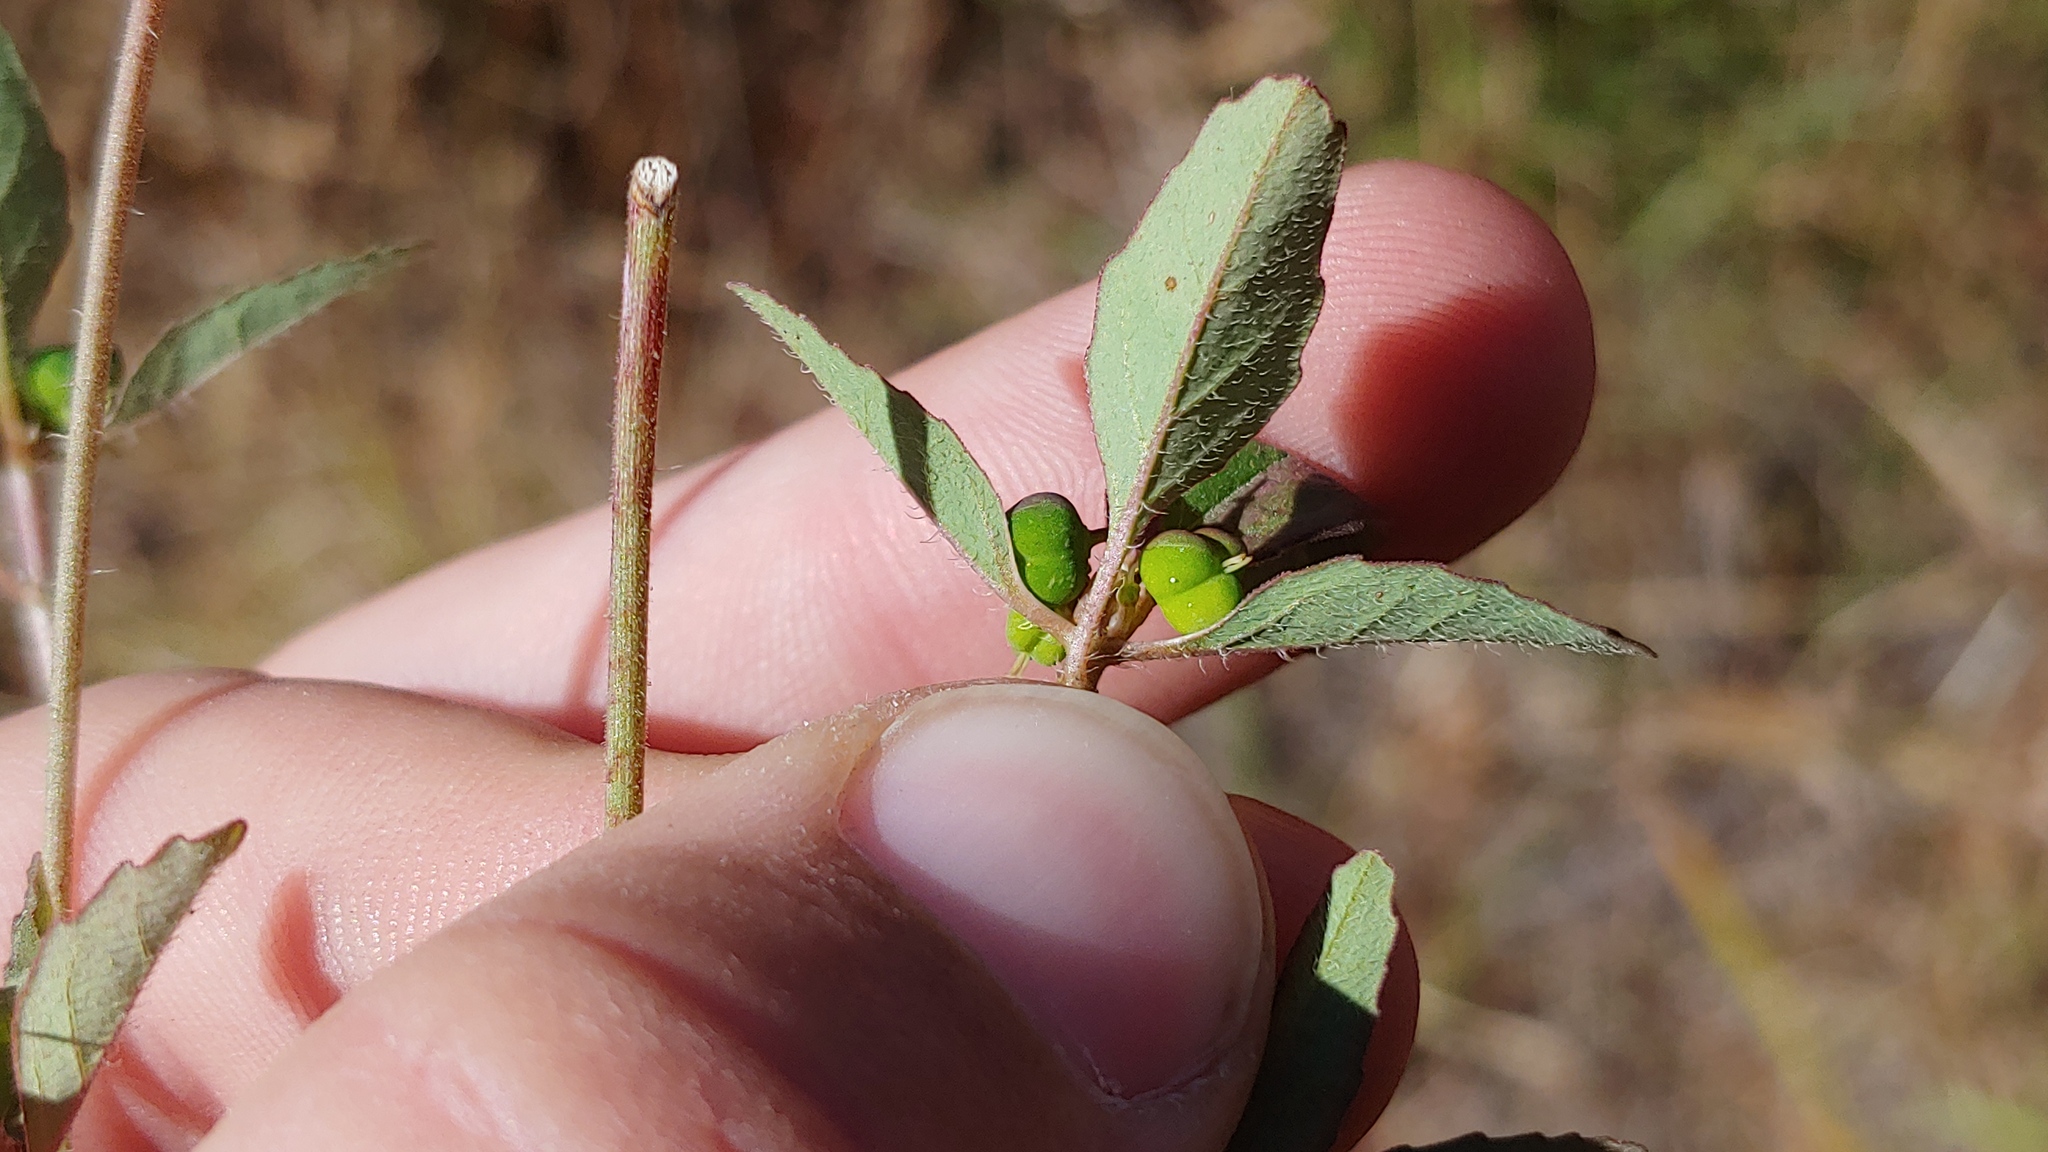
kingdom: Plantae
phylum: Tracheophyta
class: Magnoliopsida
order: Malpighiales
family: Euphorbiaceae
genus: Euphorbia
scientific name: Euphorbia davidii
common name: David's spurge
